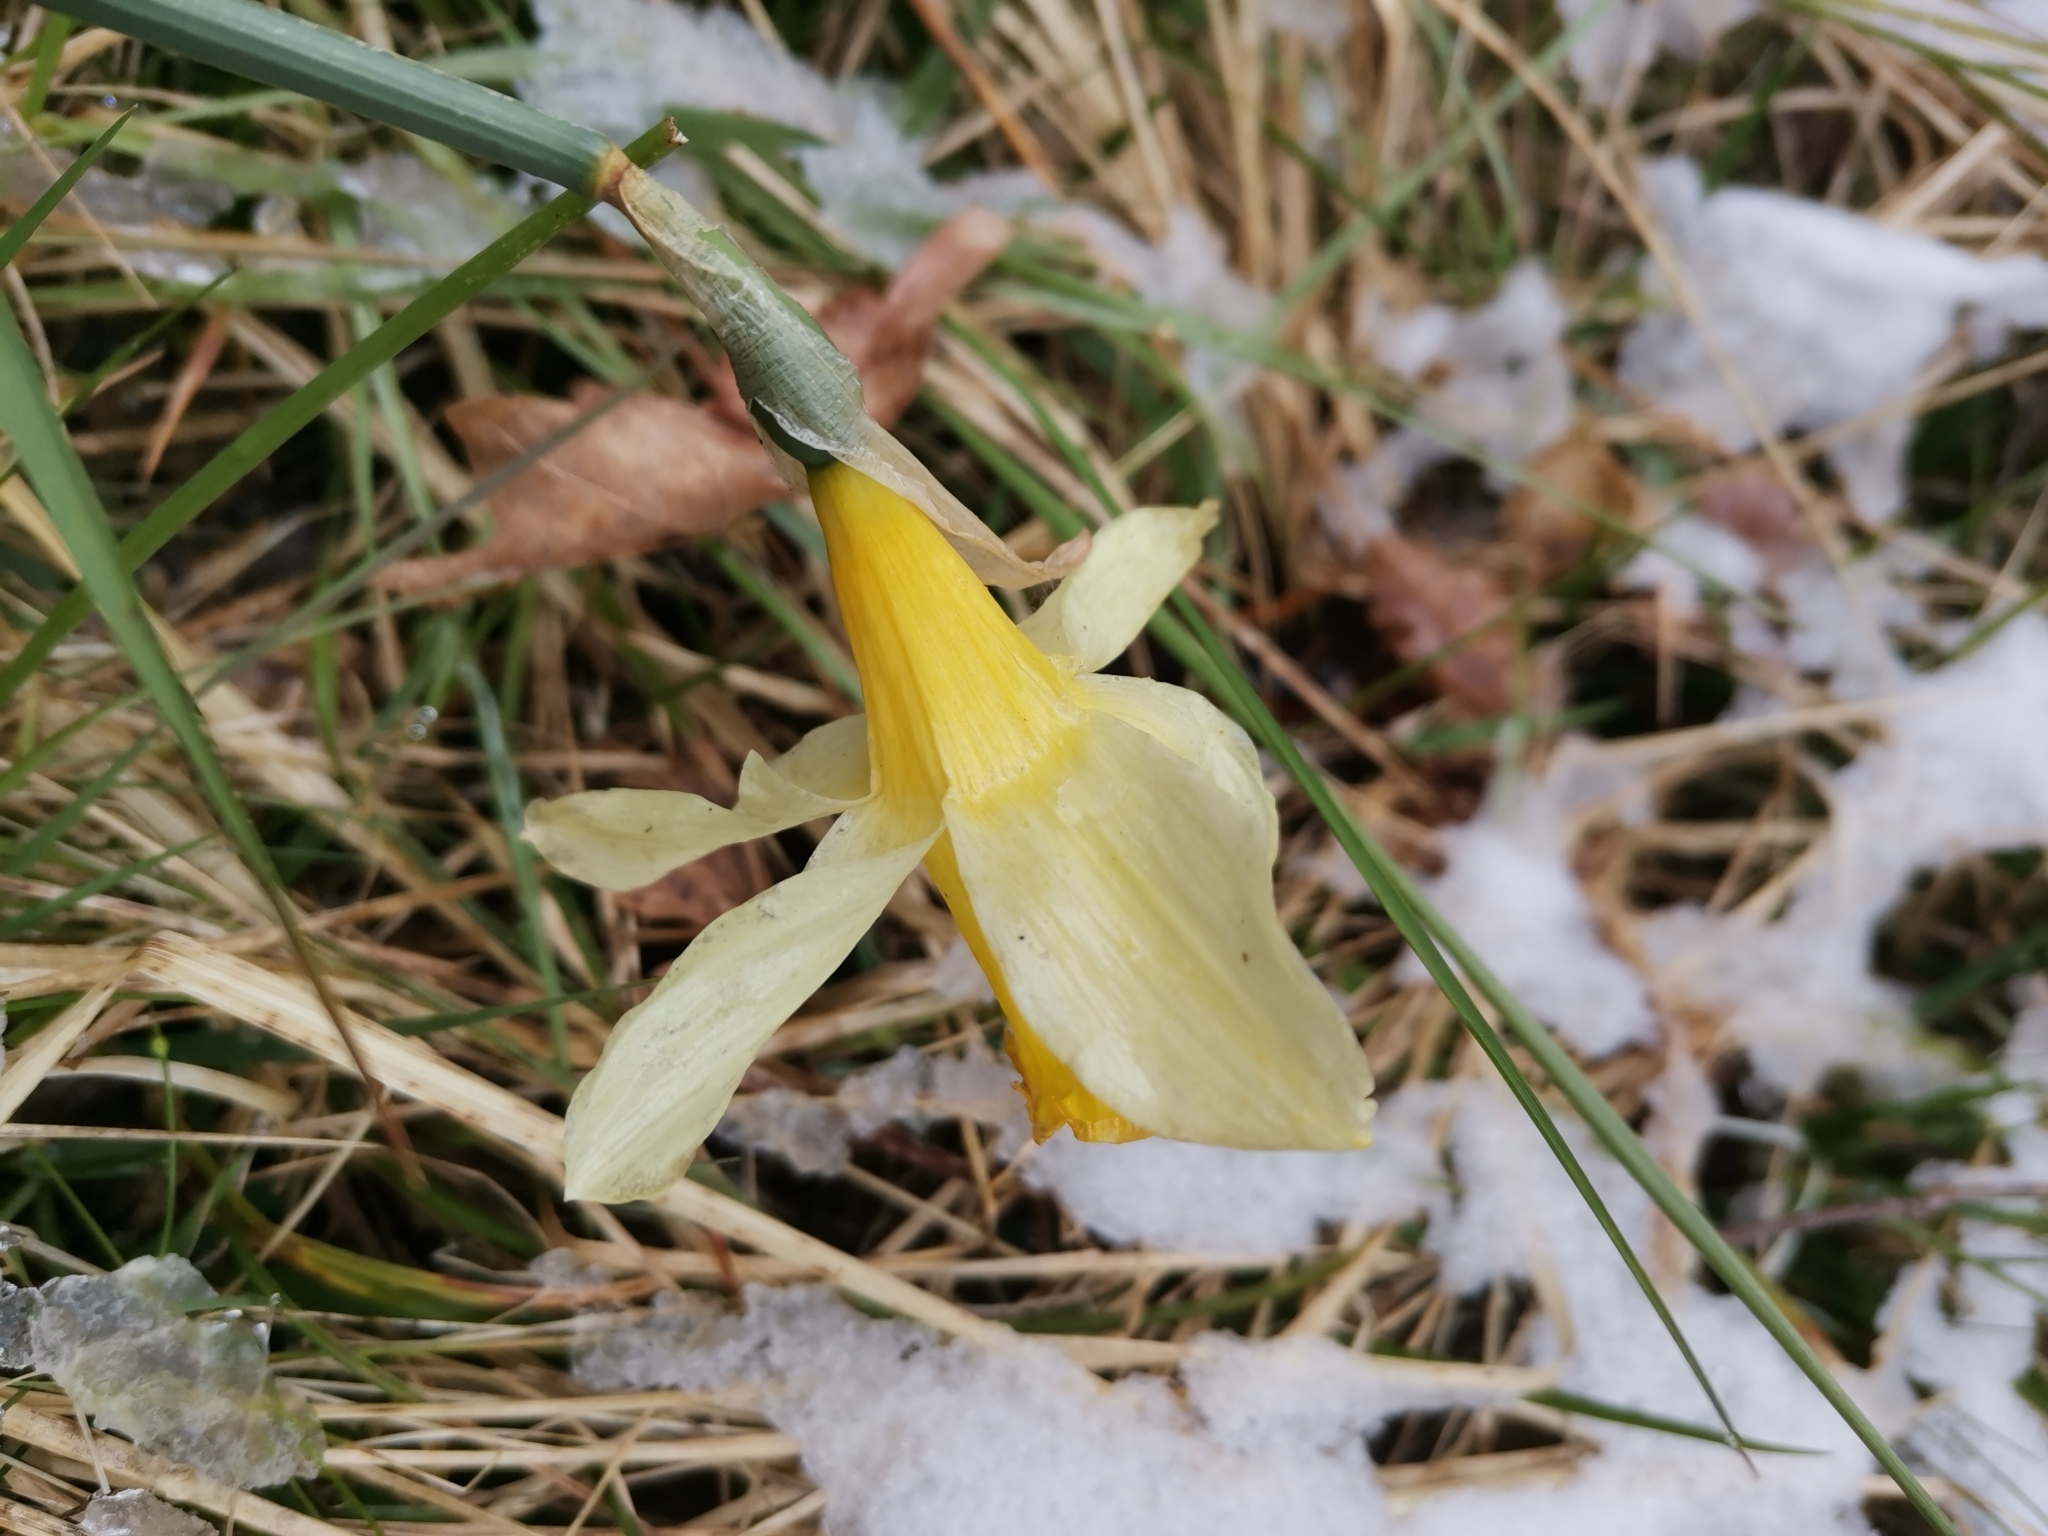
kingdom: Plantae
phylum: Tracheophyta
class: Liliopsida
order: Asparagales
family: Amaryllidaceae
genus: Narcissus
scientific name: Narcissus pseudonarcissus
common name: Daffodil
